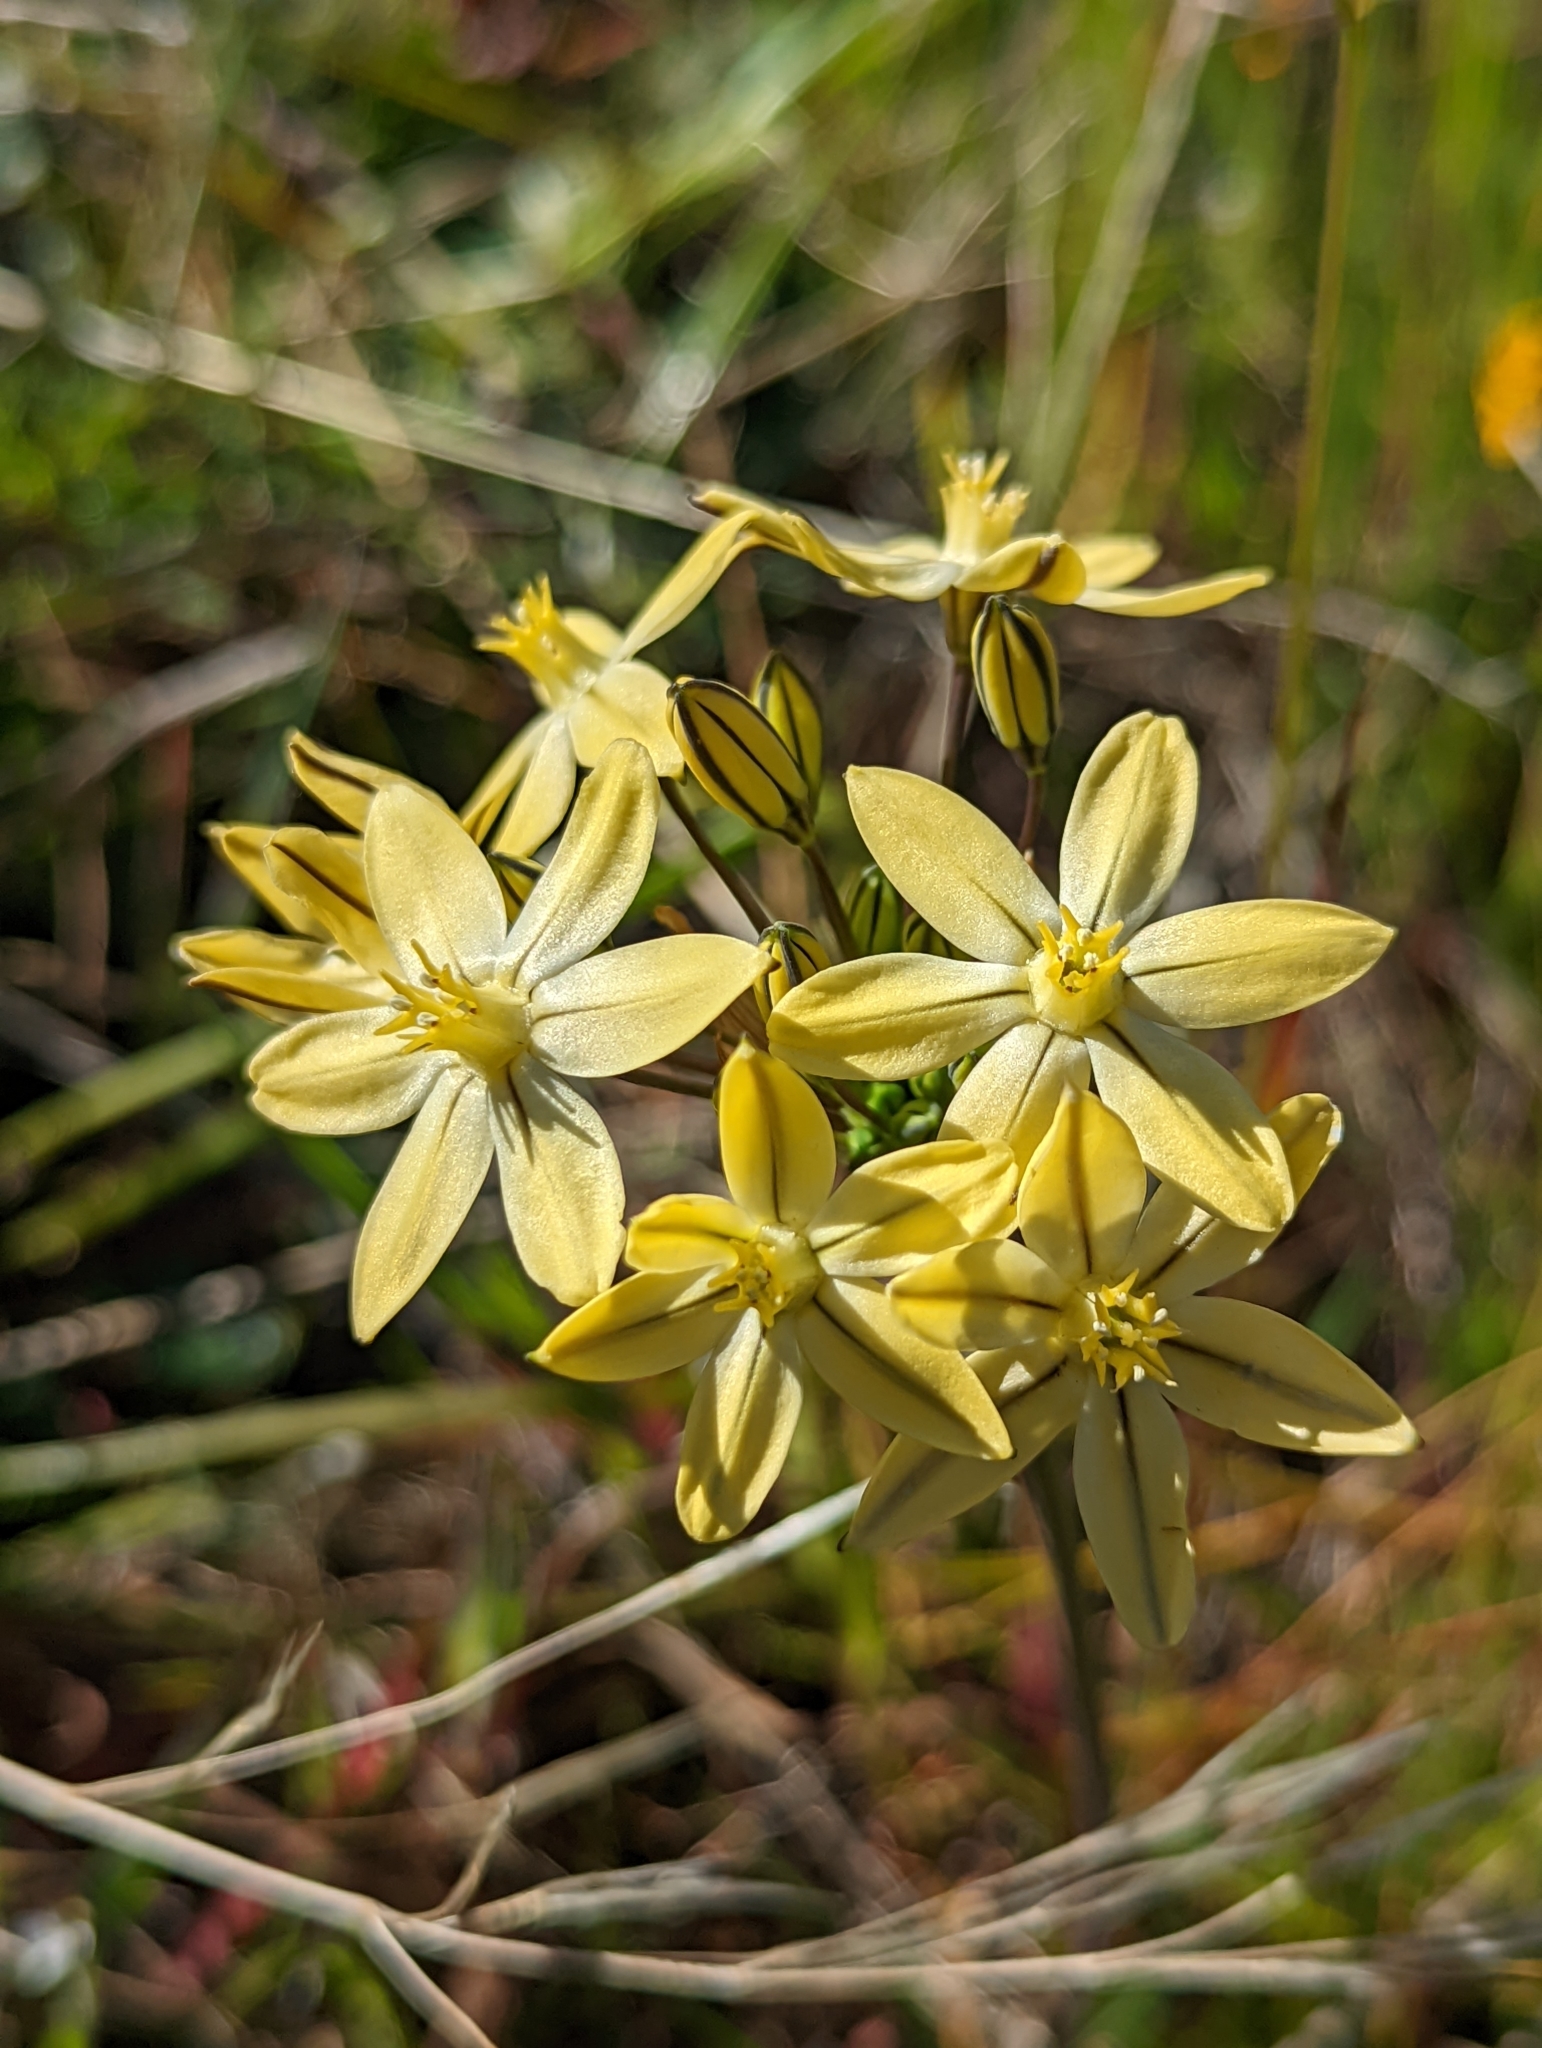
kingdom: Plantae
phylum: Tracheophyta
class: Liliopsida
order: Asparagales
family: Asparagaceae
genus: Triteleia
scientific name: Triteleia ixioides
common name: Yellow-brodiaea
